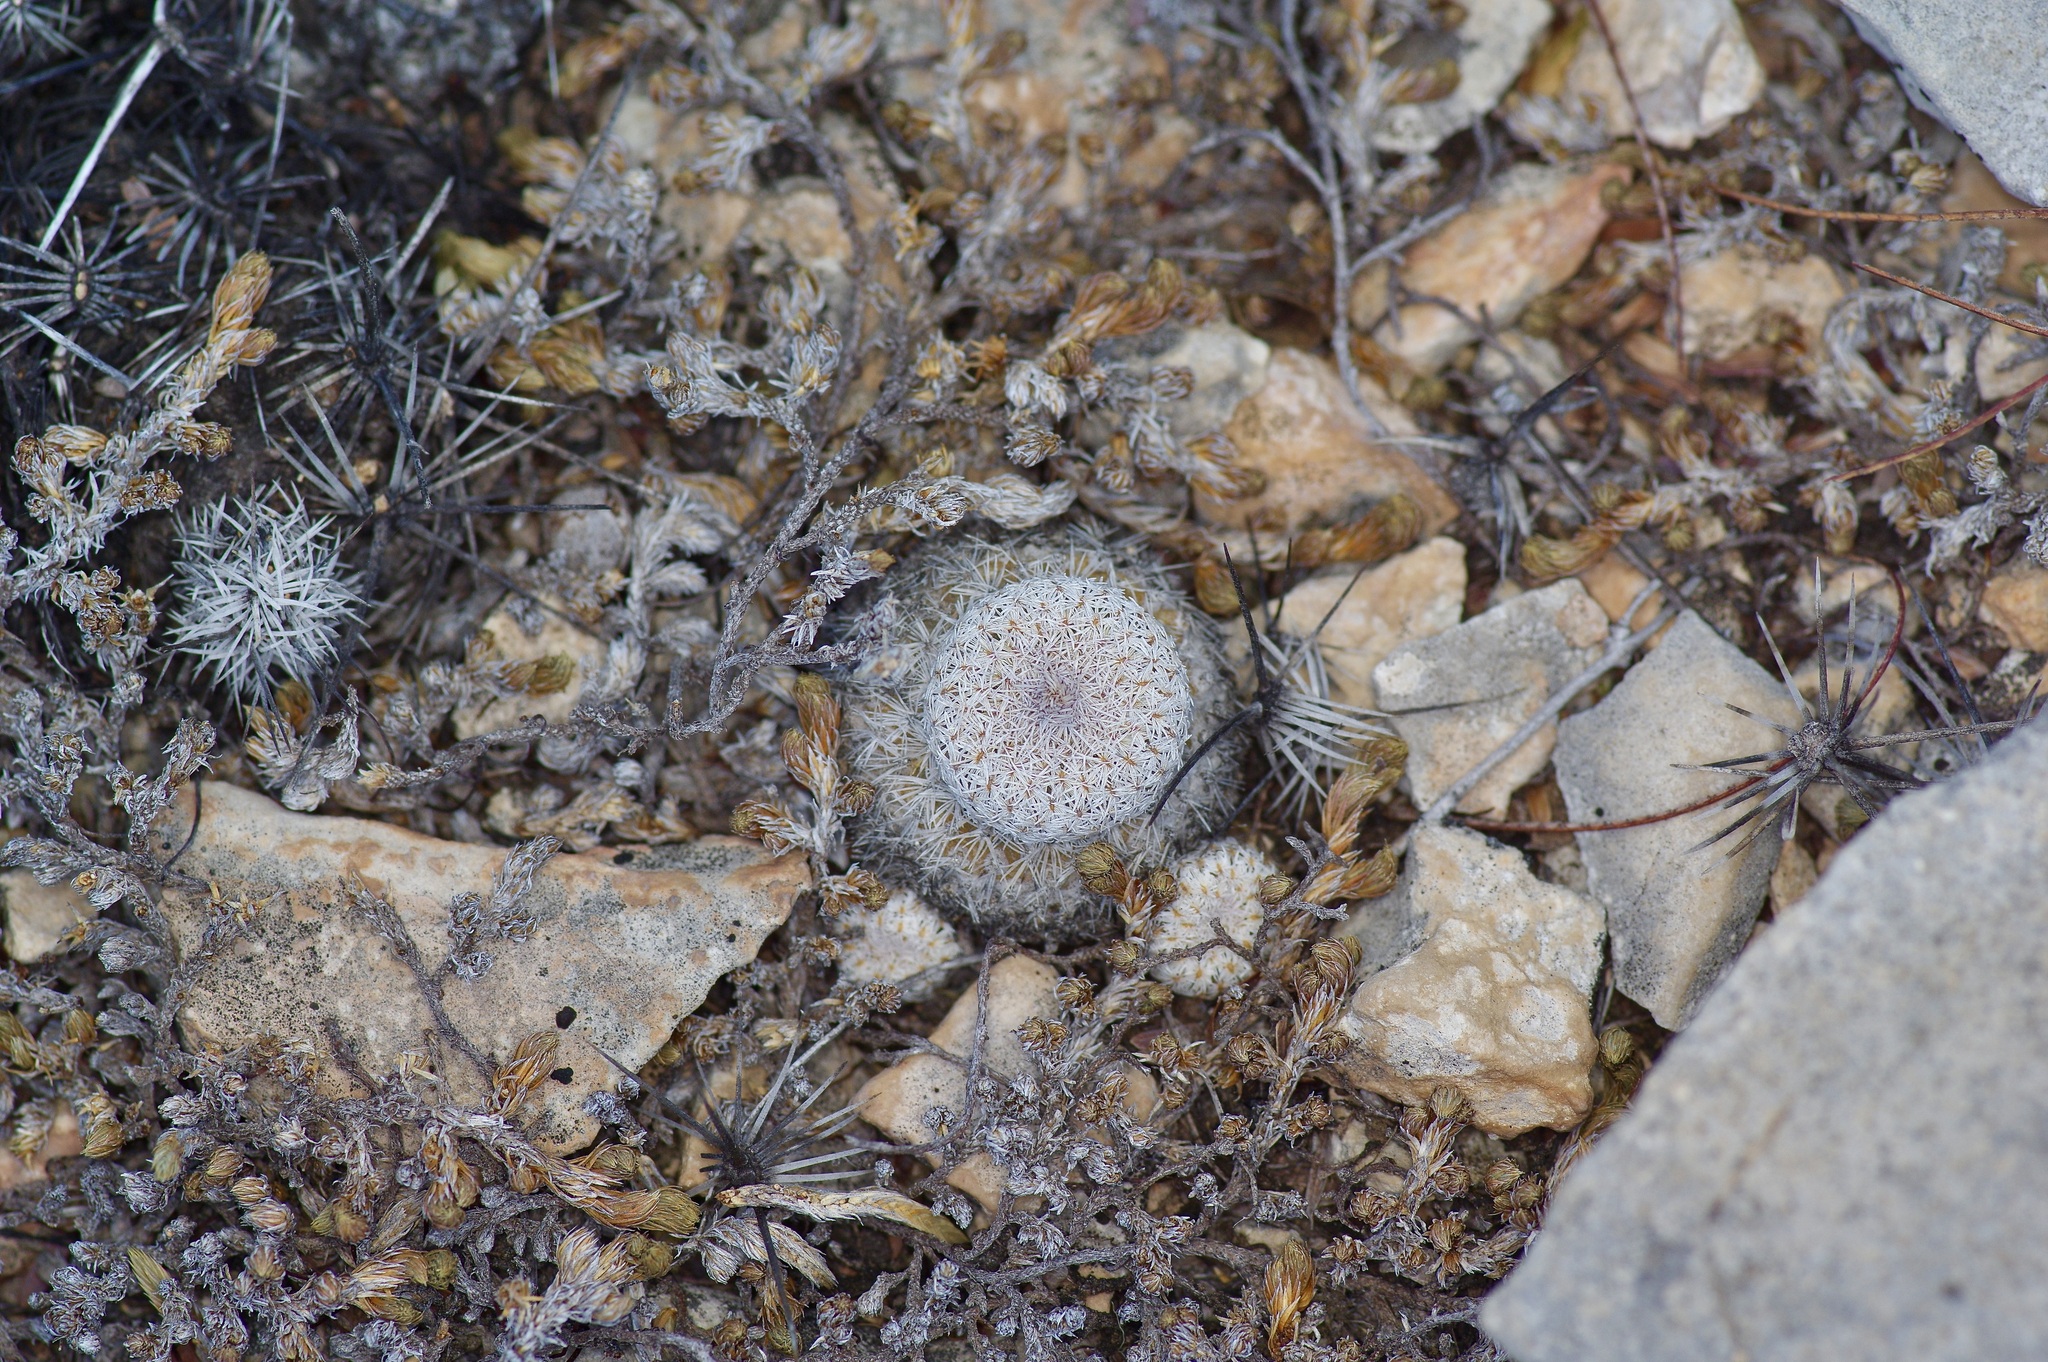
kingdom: Plantae
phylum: Tracheophyta
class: Magnoliopsida
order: Caryophyllales
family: Cactaceae
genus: Epithelantha
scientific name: Epithelantha micromeris
